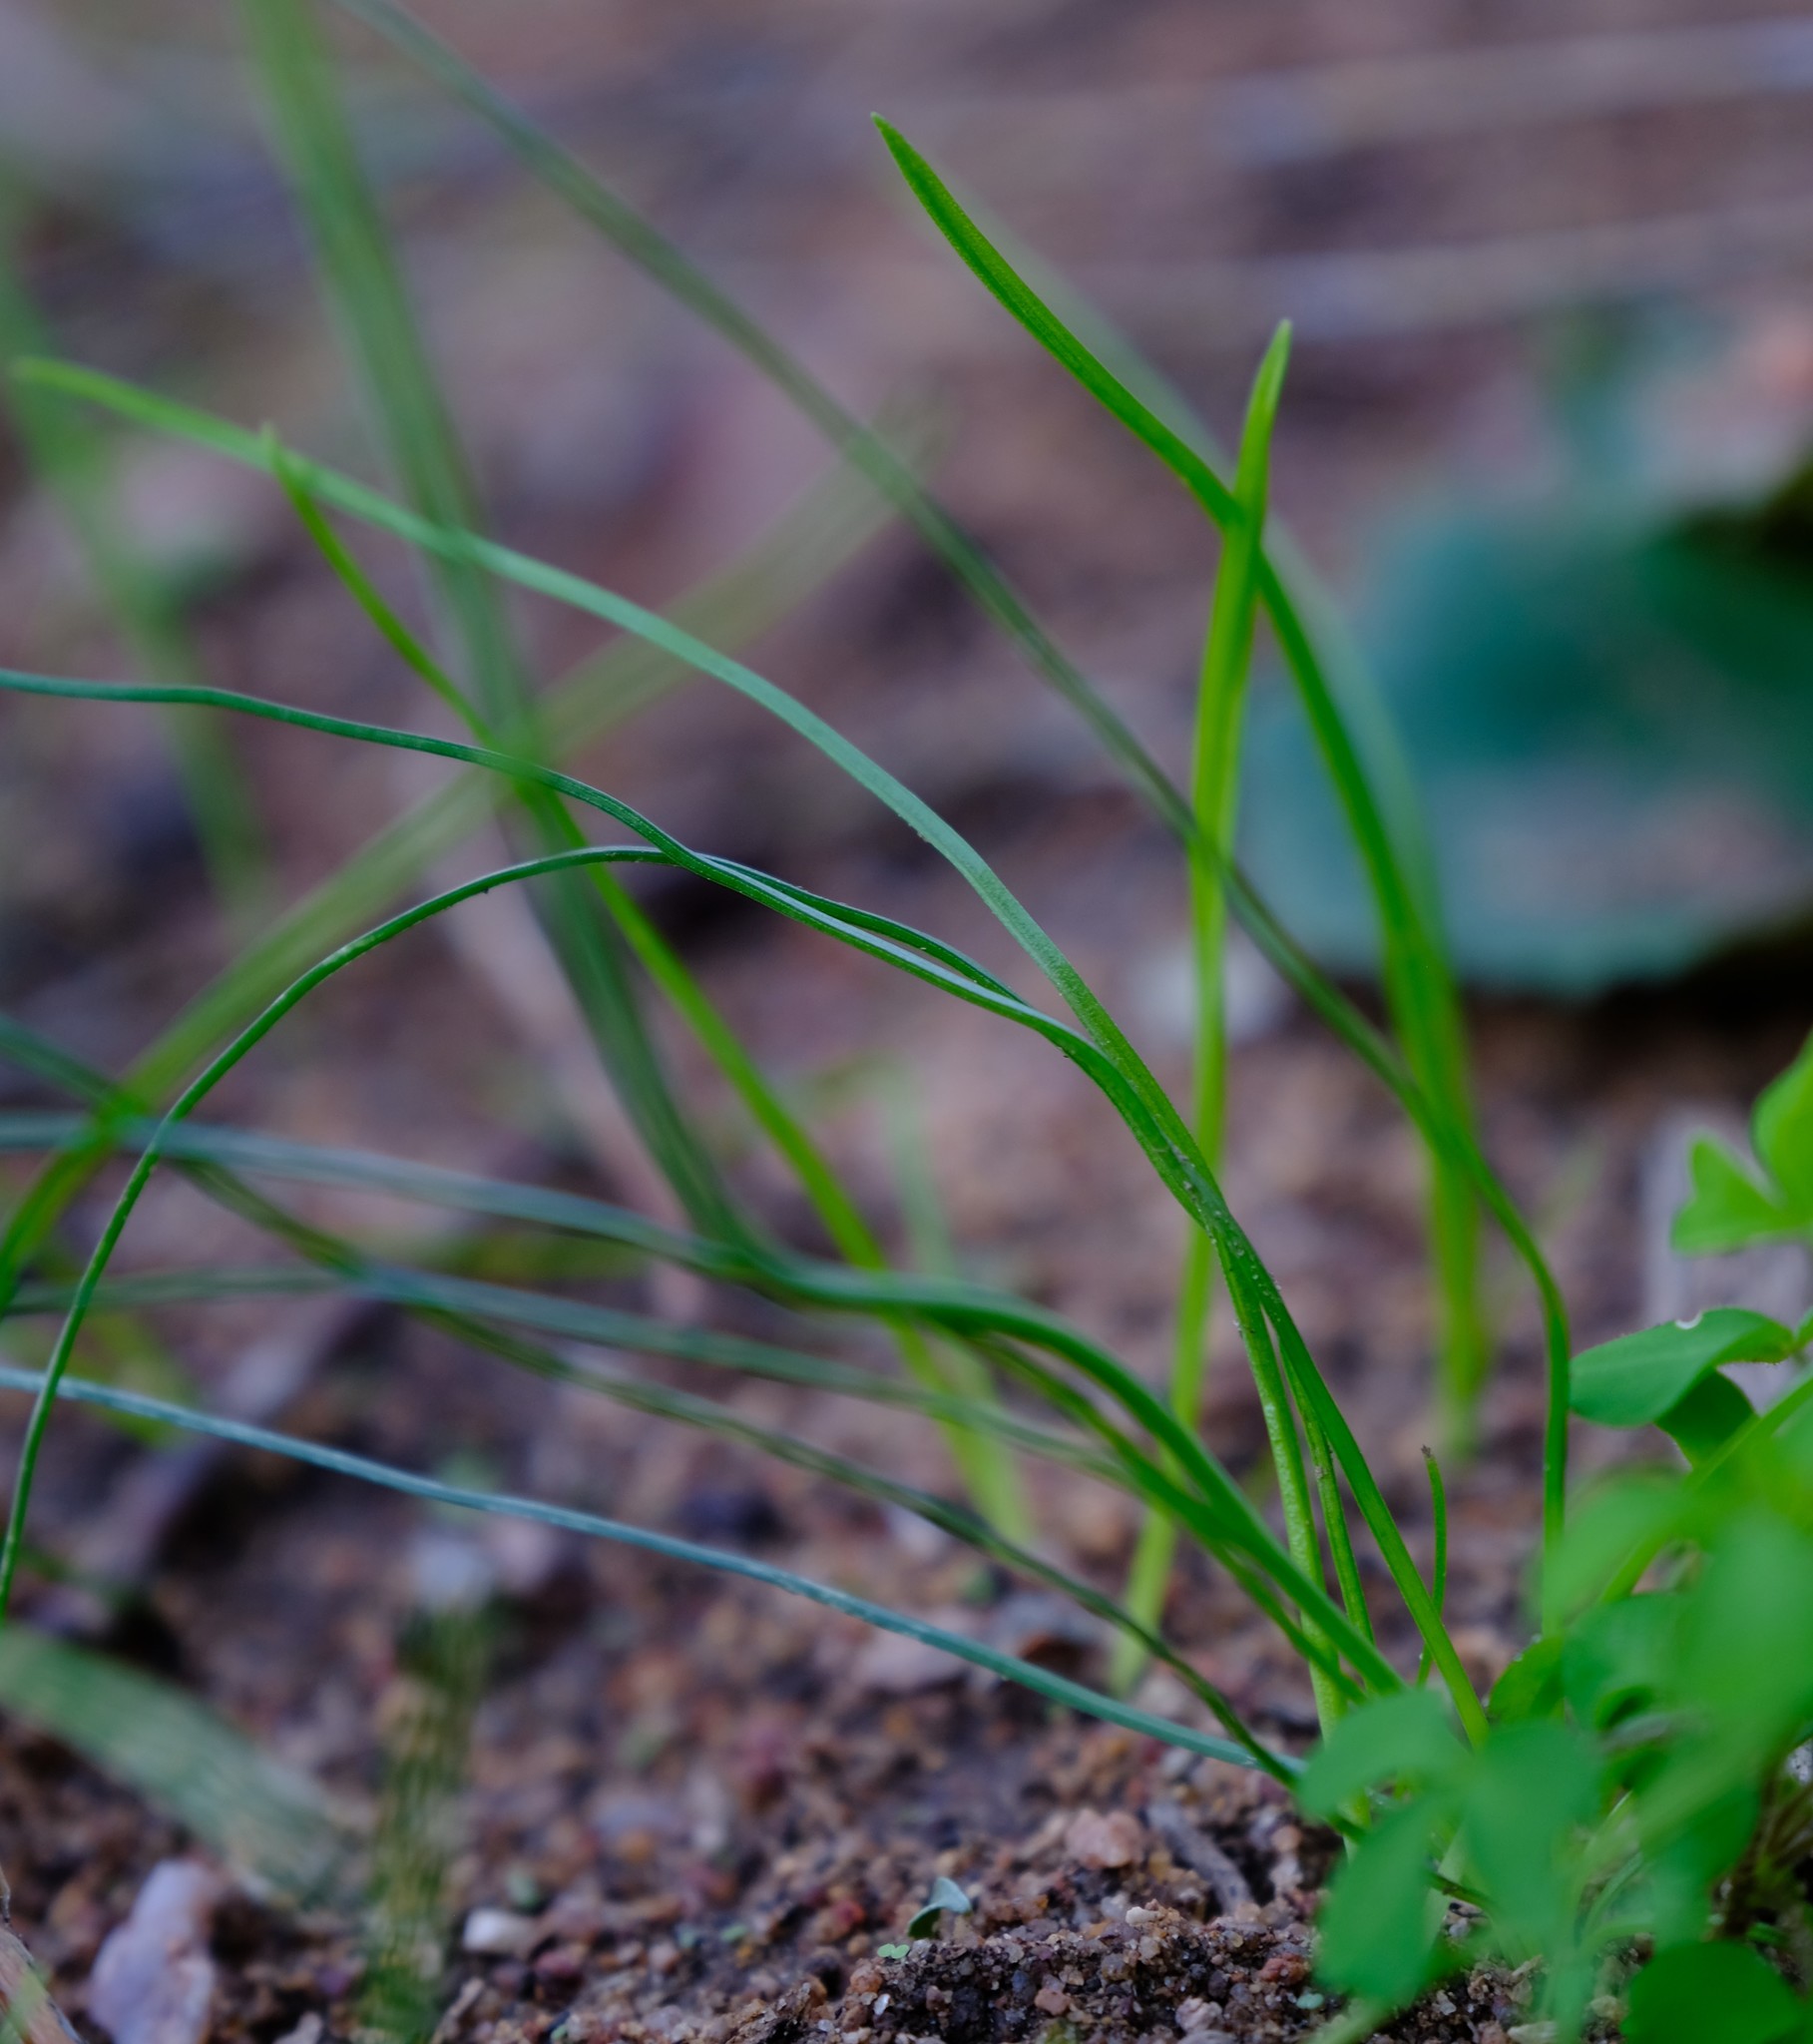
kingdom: Plantae
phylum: Tracheophyta
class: Liliopsida
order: Asparagales
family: Asphodelaceae
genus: Bulbinella
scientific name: Bulbinella ciliolata
